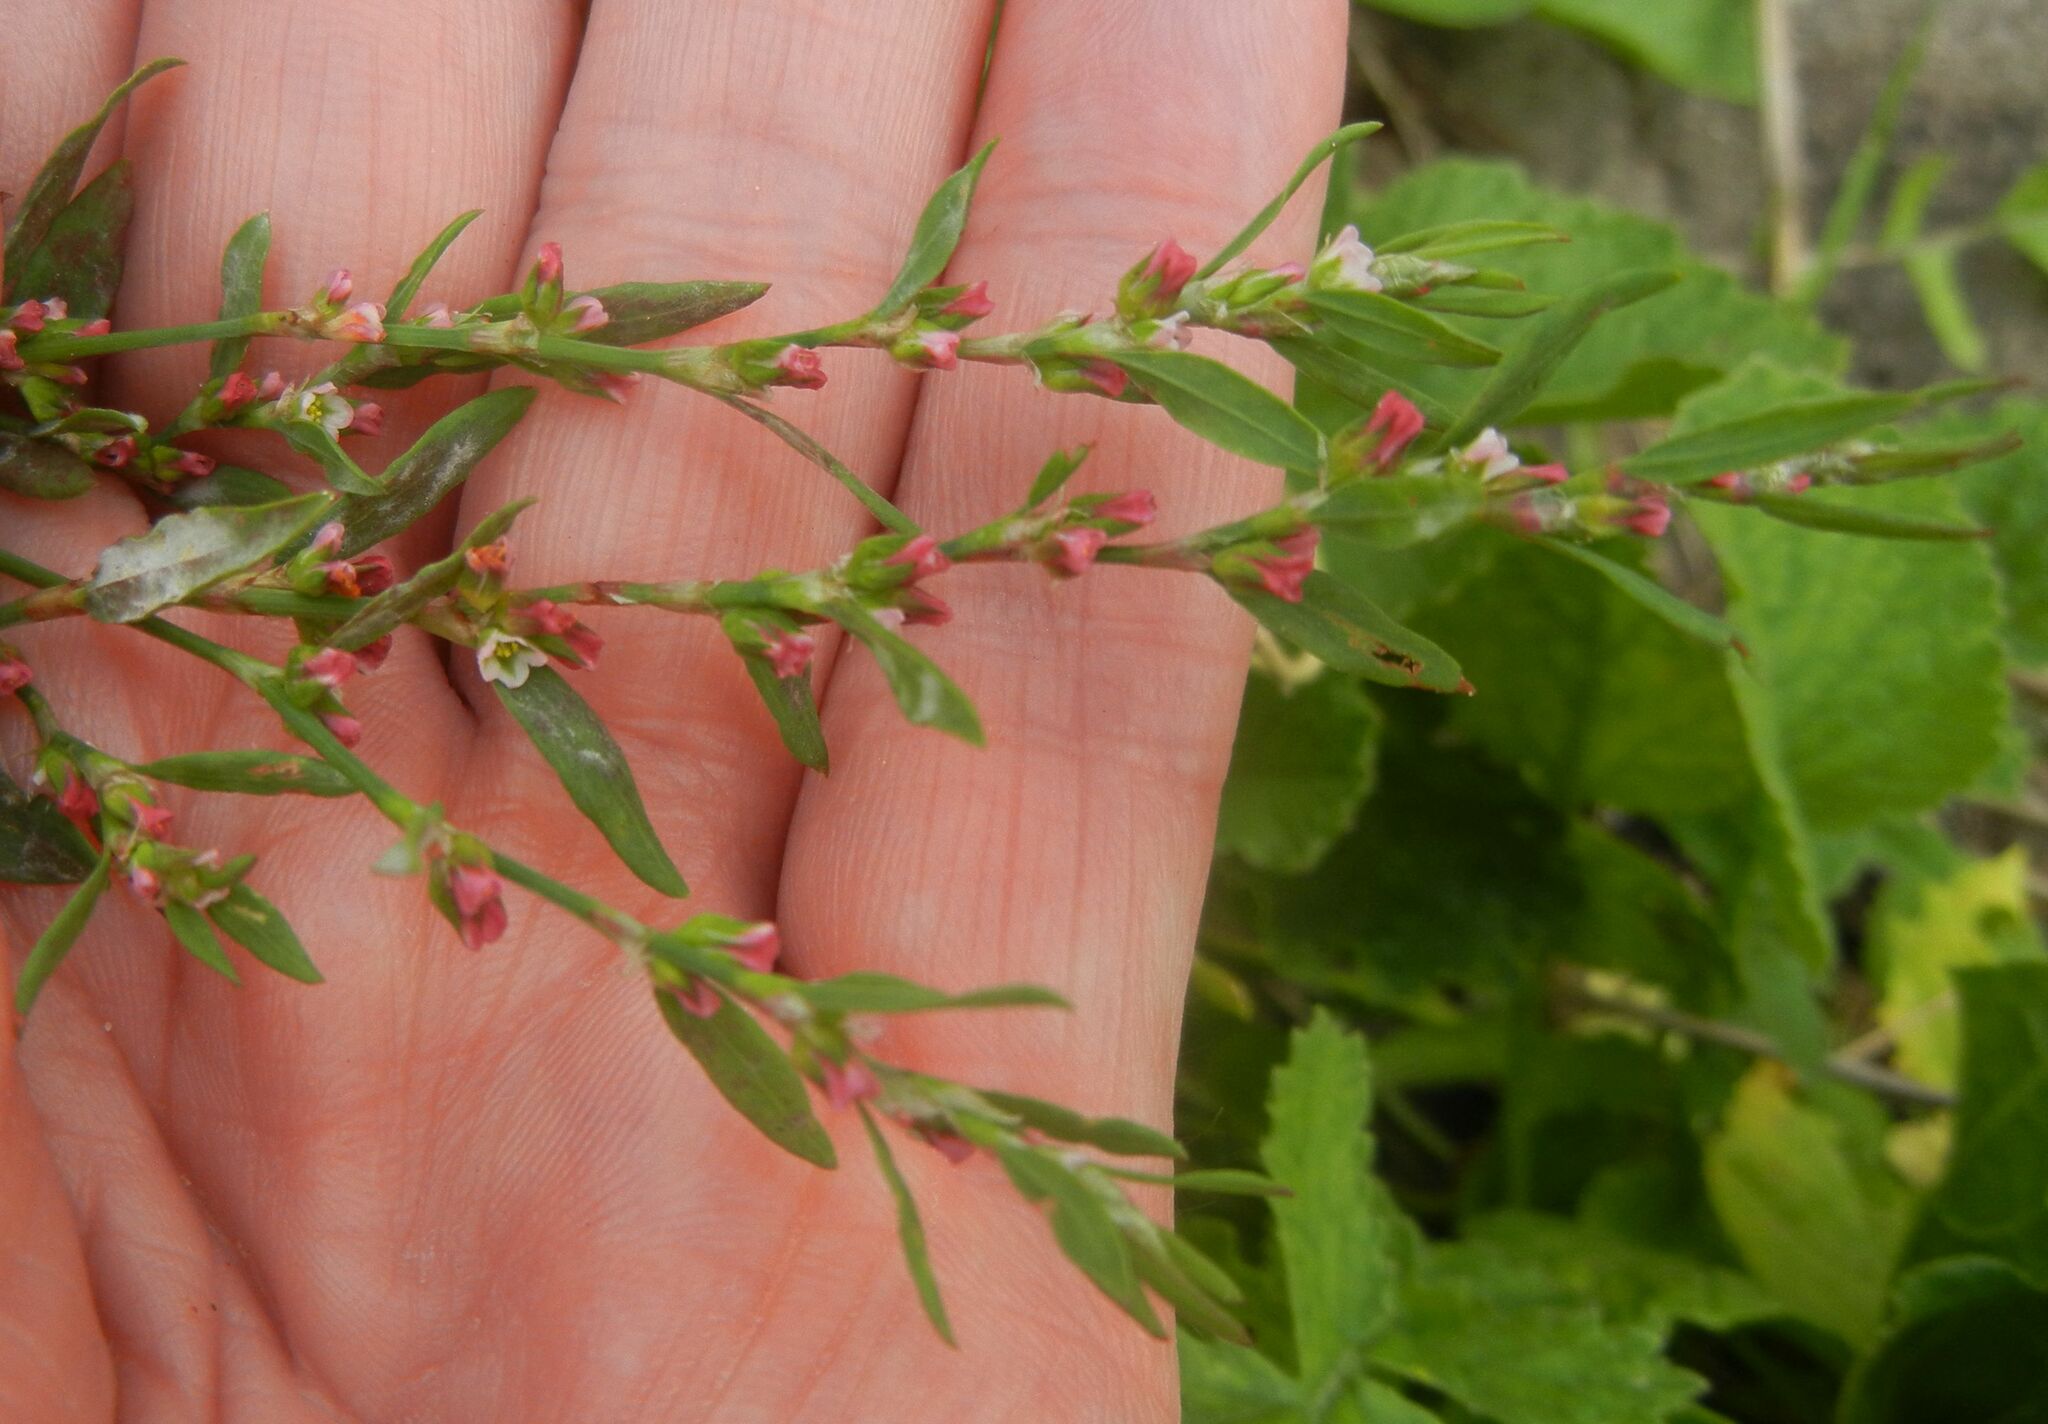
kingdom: Plantae
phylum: Tracheophyta
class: Magnoliopsida
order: Caryophyllales
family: Polygonaceae
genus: Polygonum
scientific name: Polygonum aviculare
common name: Prostrate knotweed
